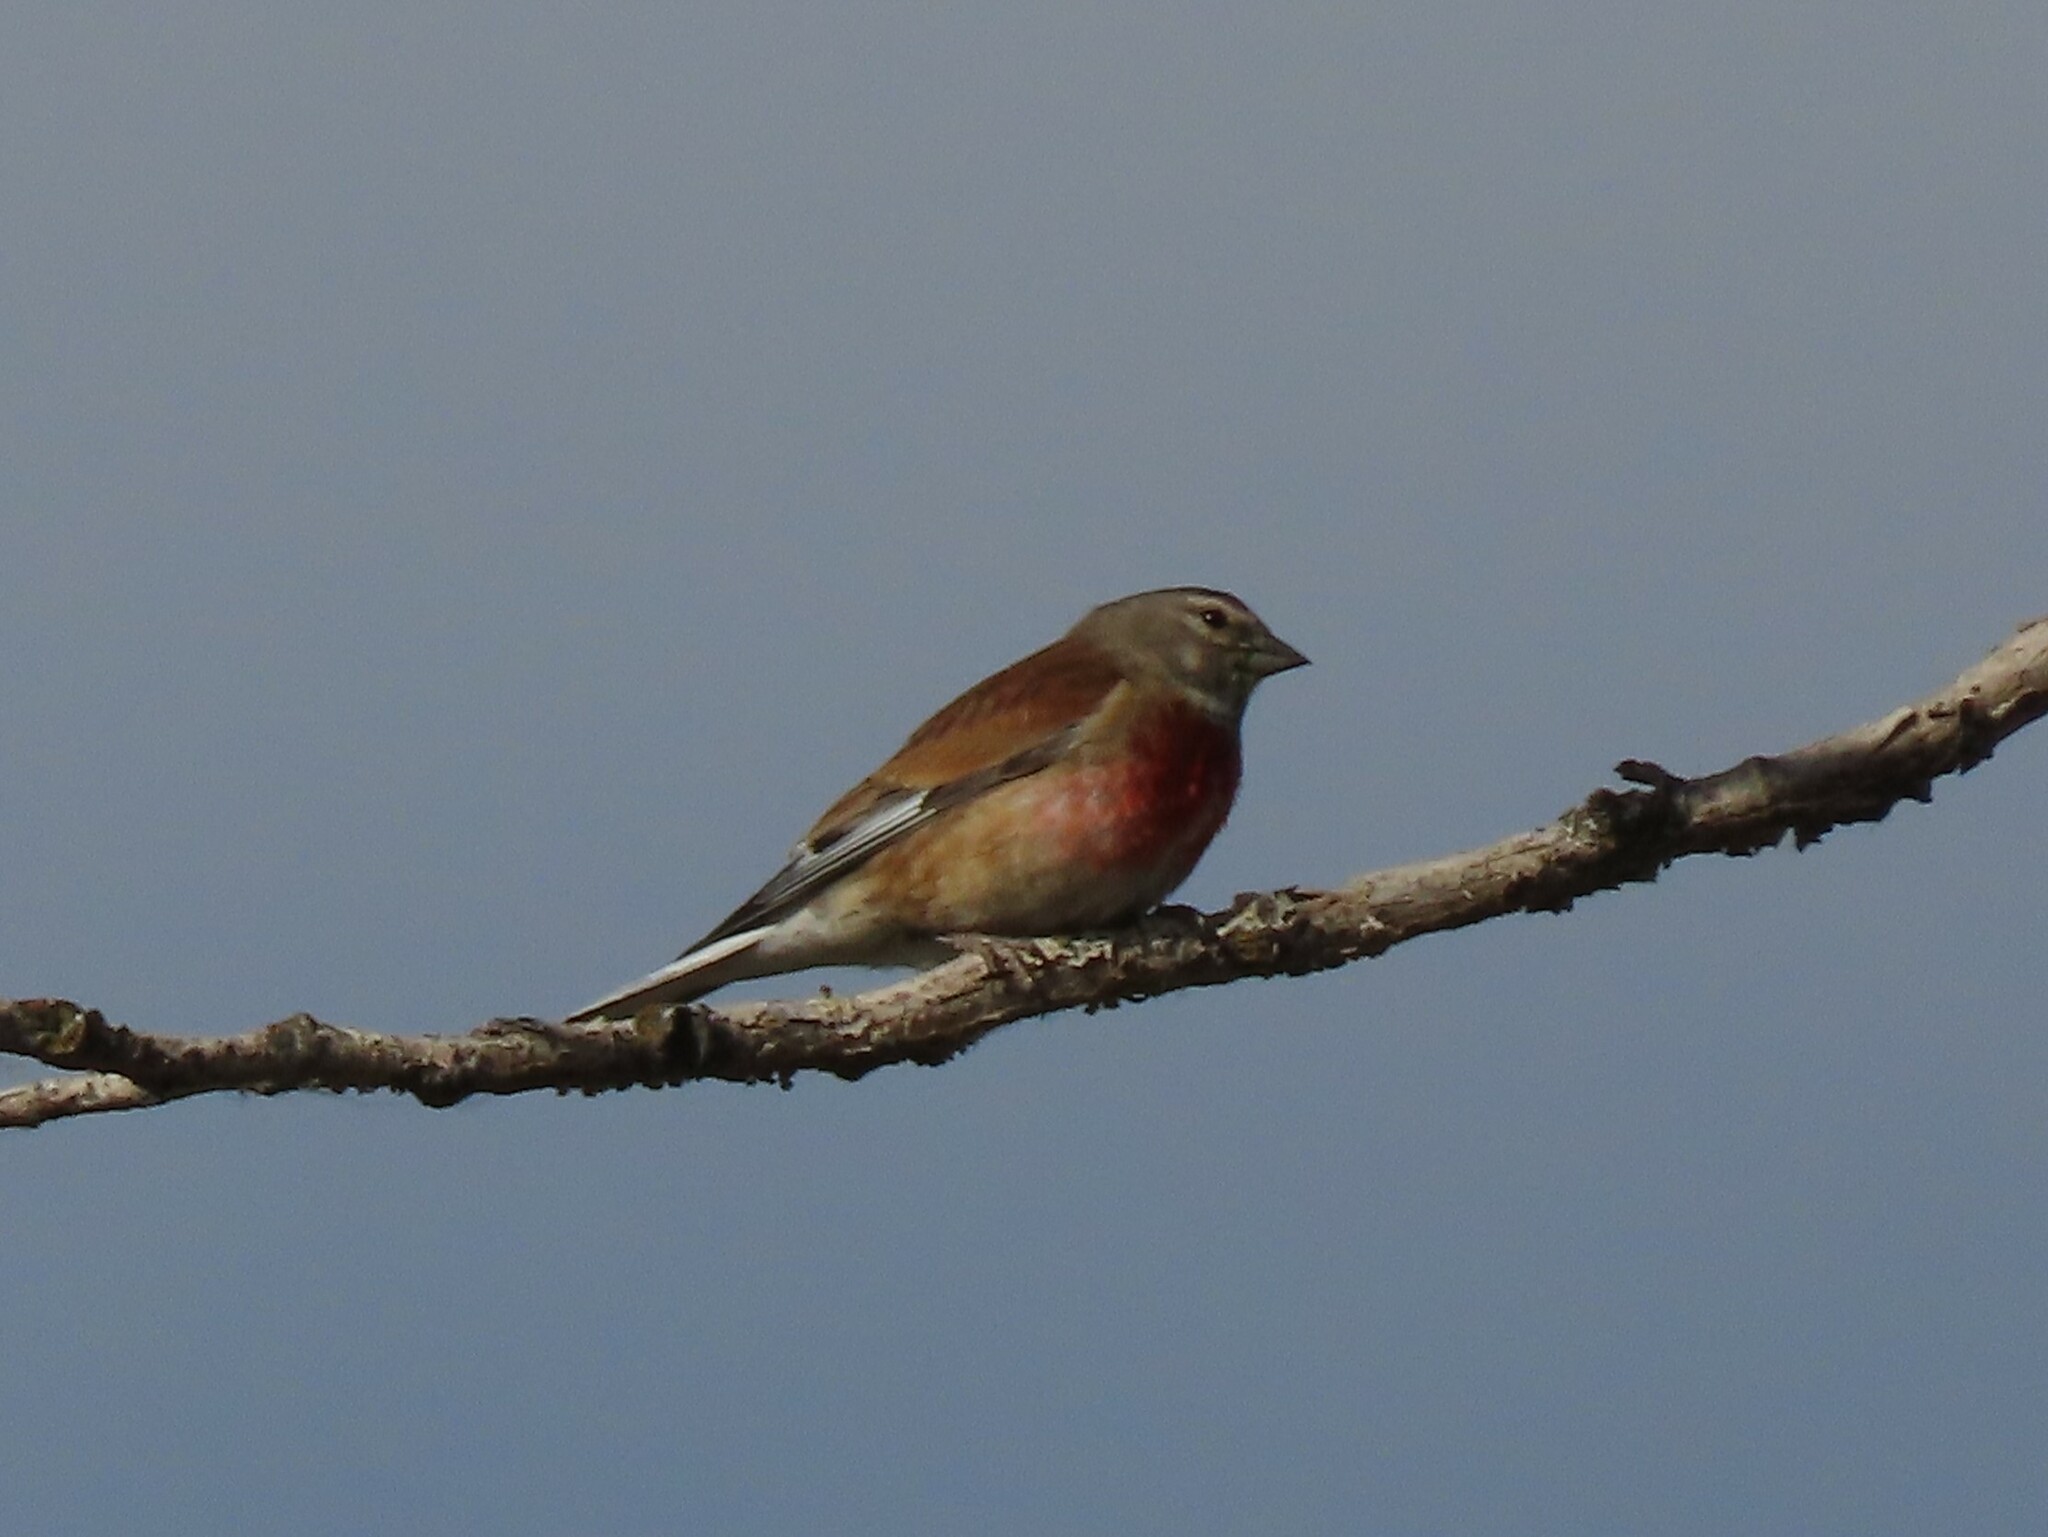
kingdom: Animalia
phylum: Chordata
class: Aves
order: Passeriformes
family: Fringillidae
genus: Linaria
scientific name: Linaria cannabina
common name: Common linnet
